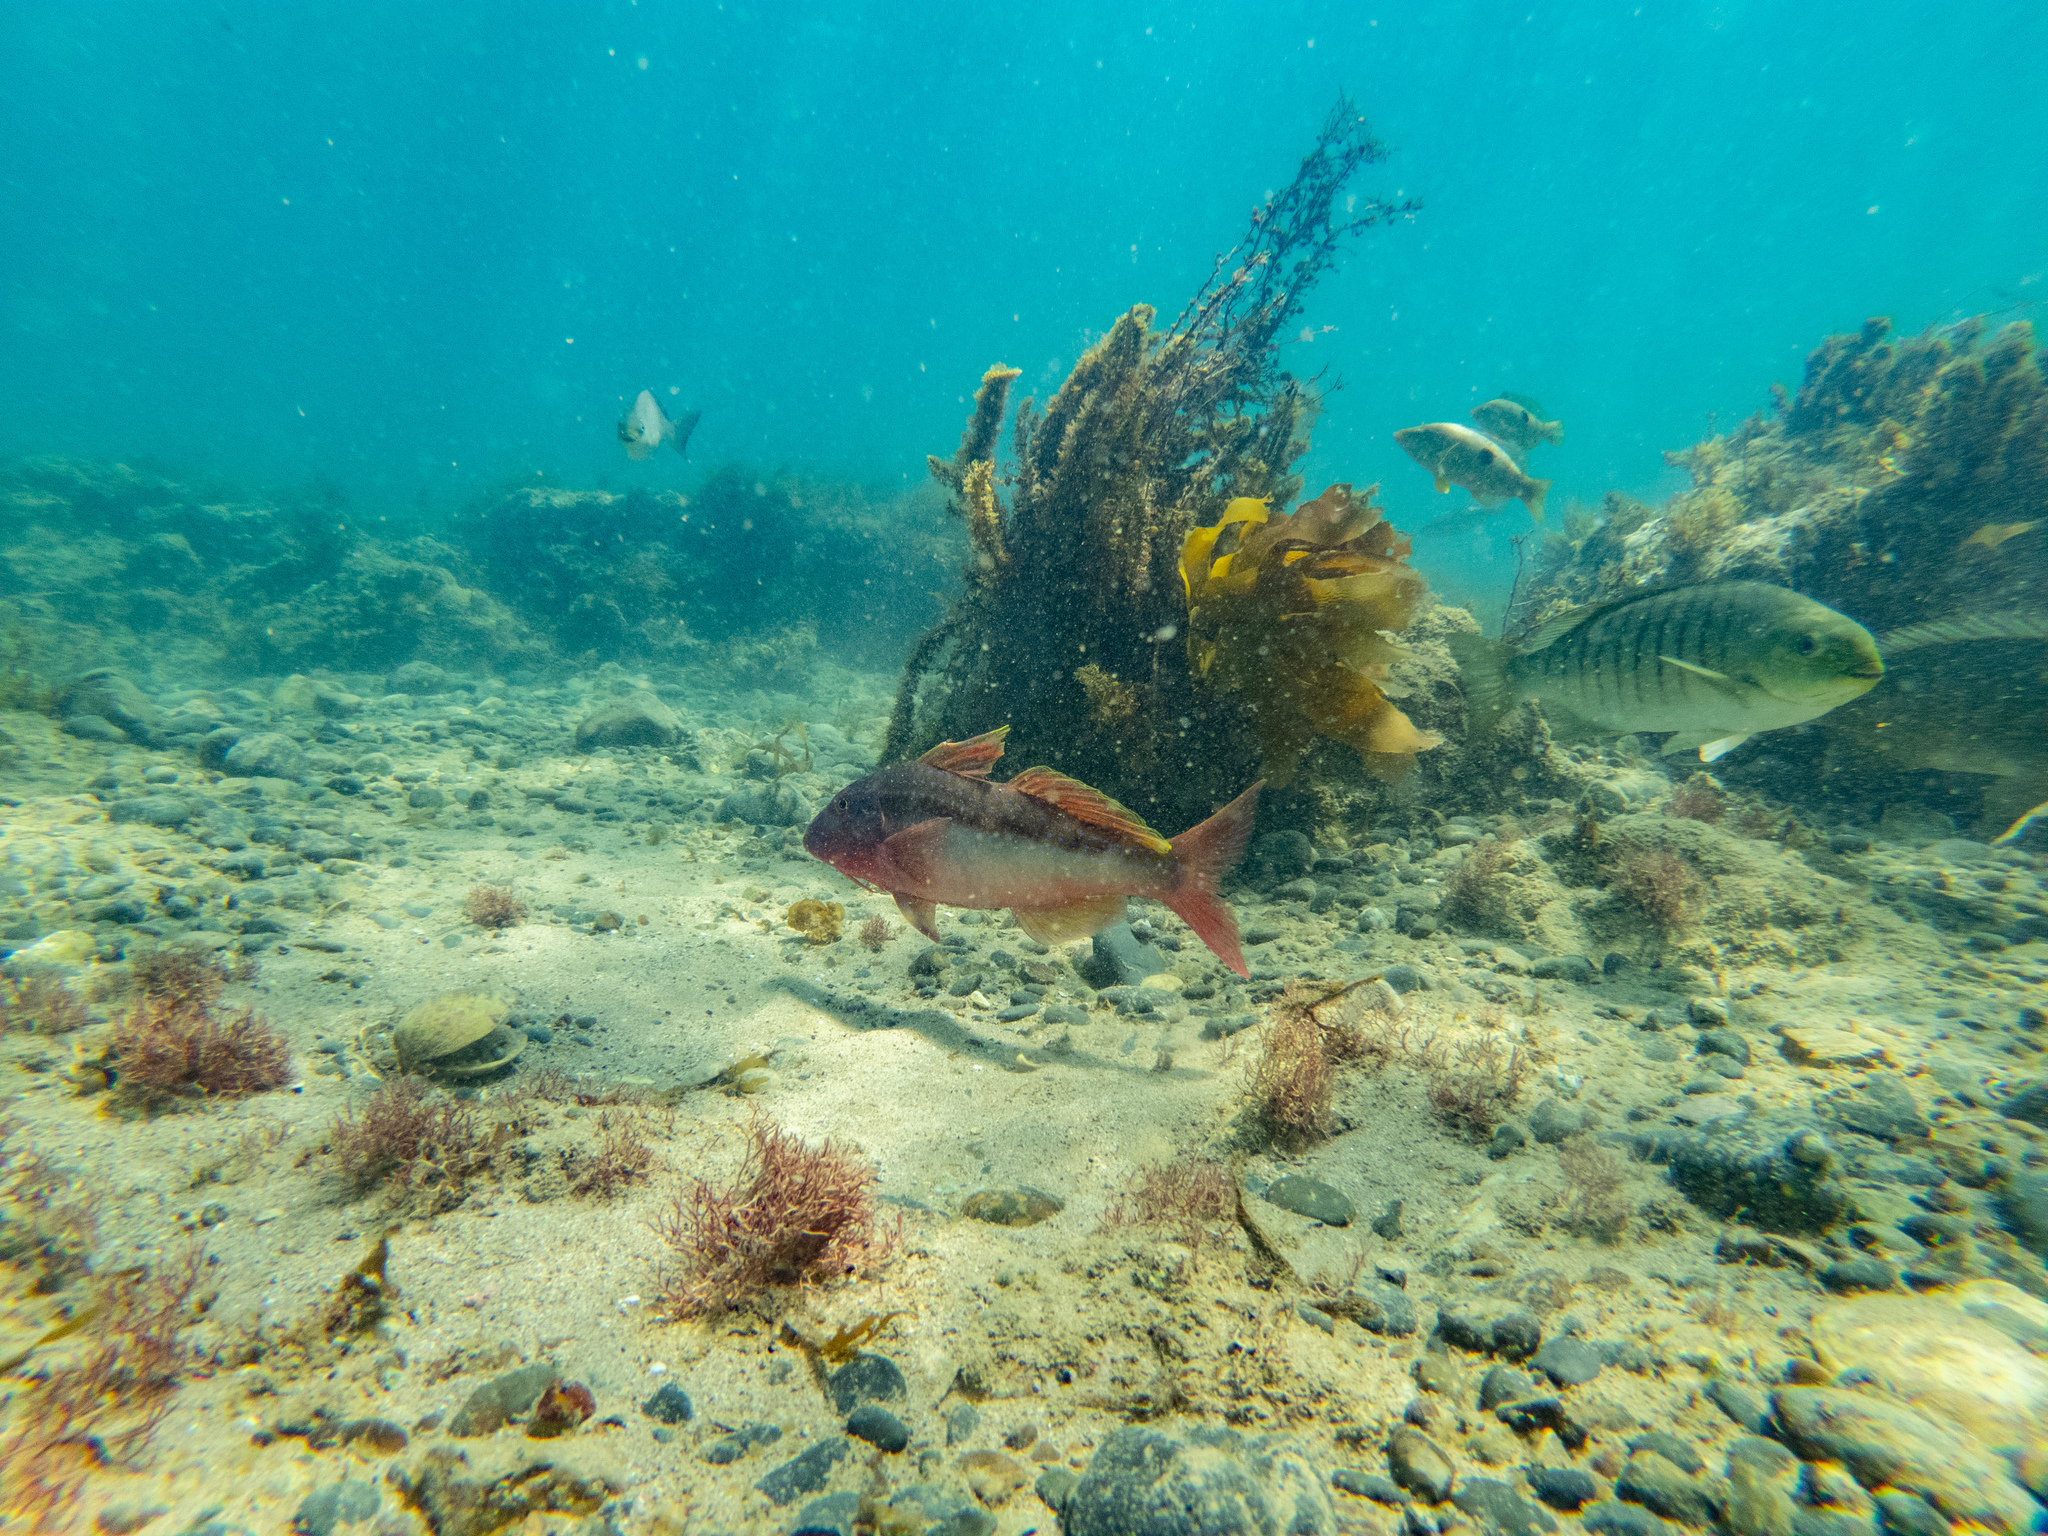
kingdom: Animalia
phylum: Chordata
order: Perciformes
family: Mullidae
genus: Upeneichthys
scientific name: Upeneichthys lineatus
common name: Red mullet
